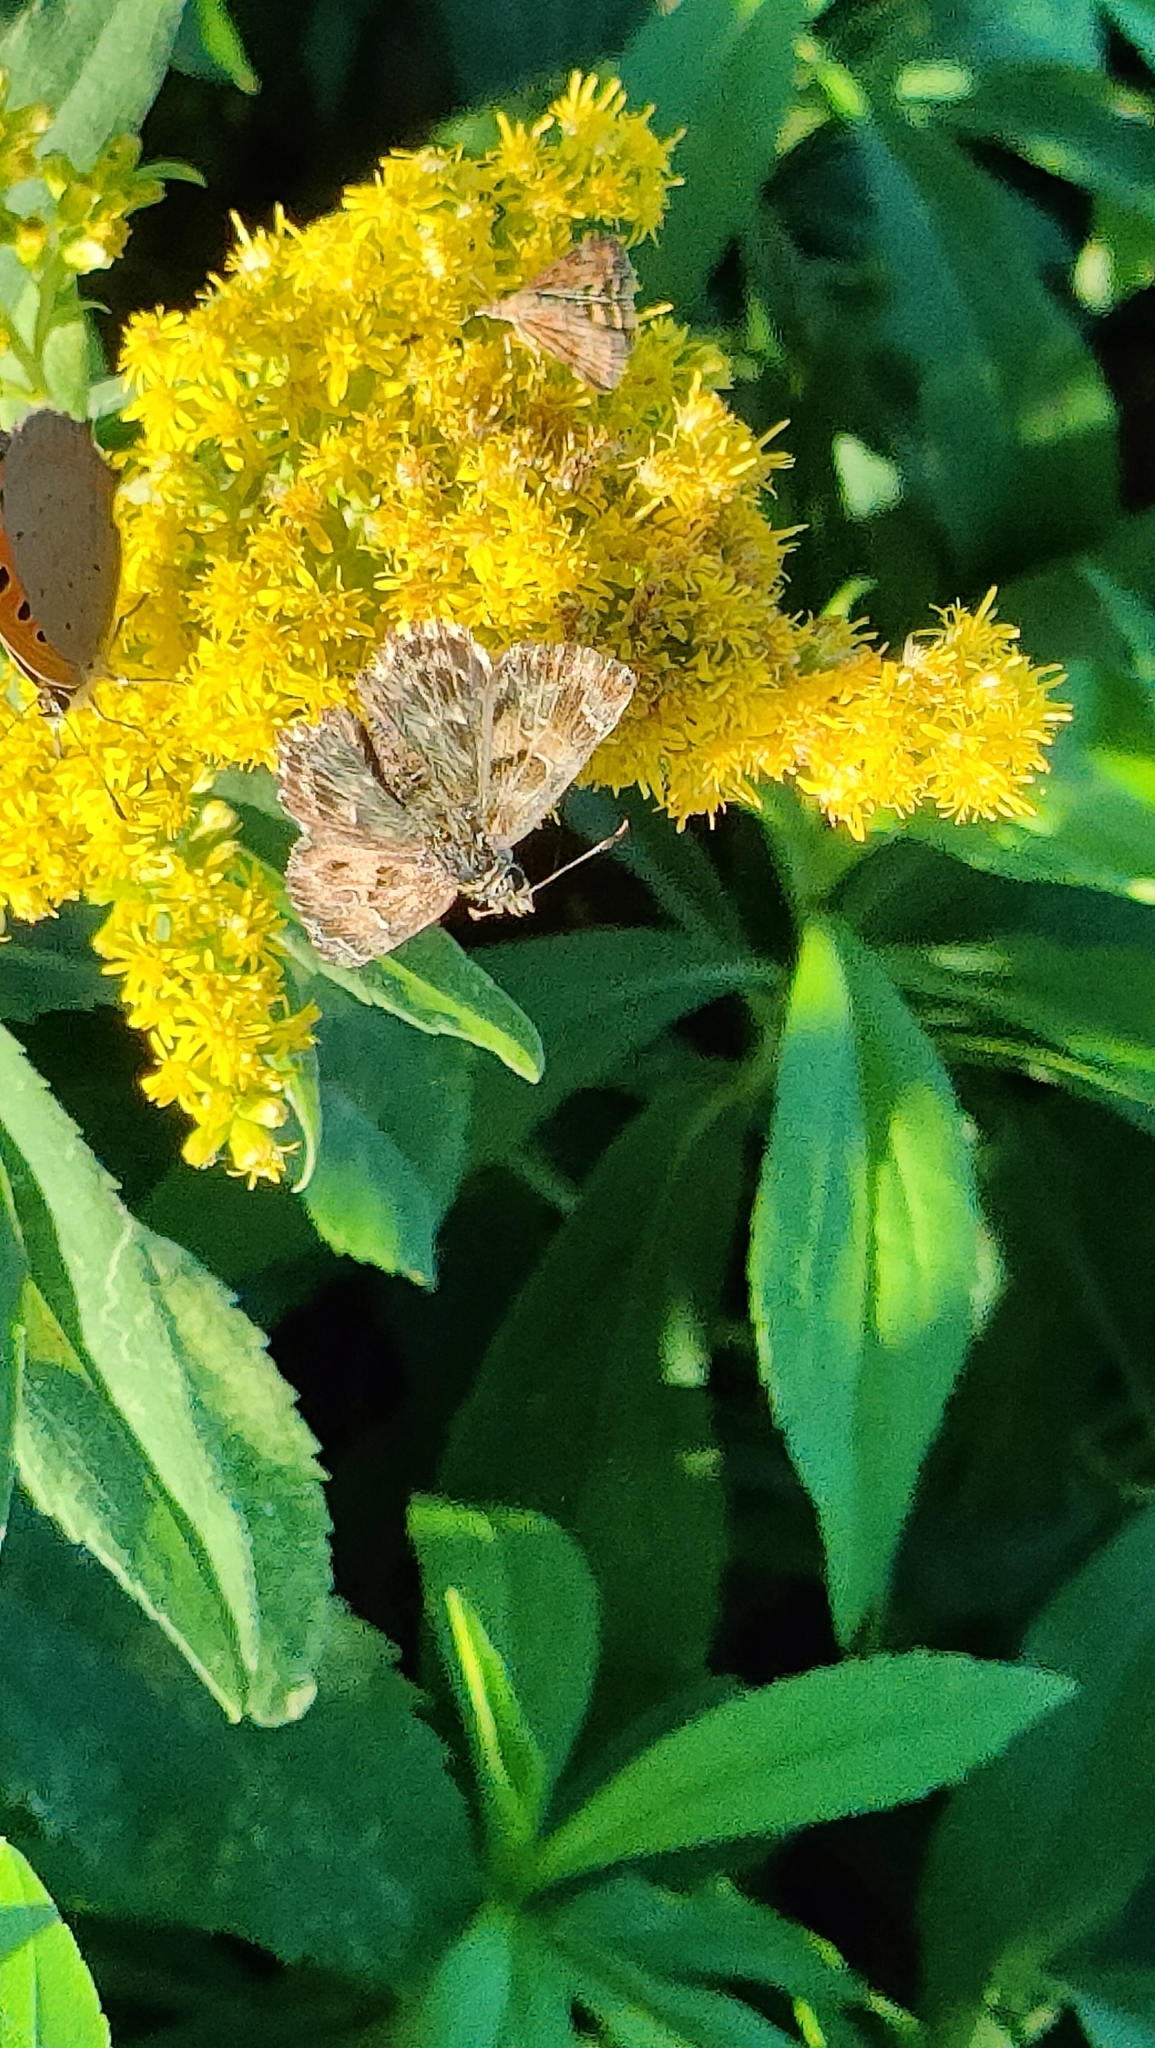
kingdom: Animalia
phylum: Arthropoda
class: Insecta
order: Lepidoptera
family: Hesperiidae
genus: Carcharodus
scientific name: Carcharodus alceae
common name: Mallow skipper
